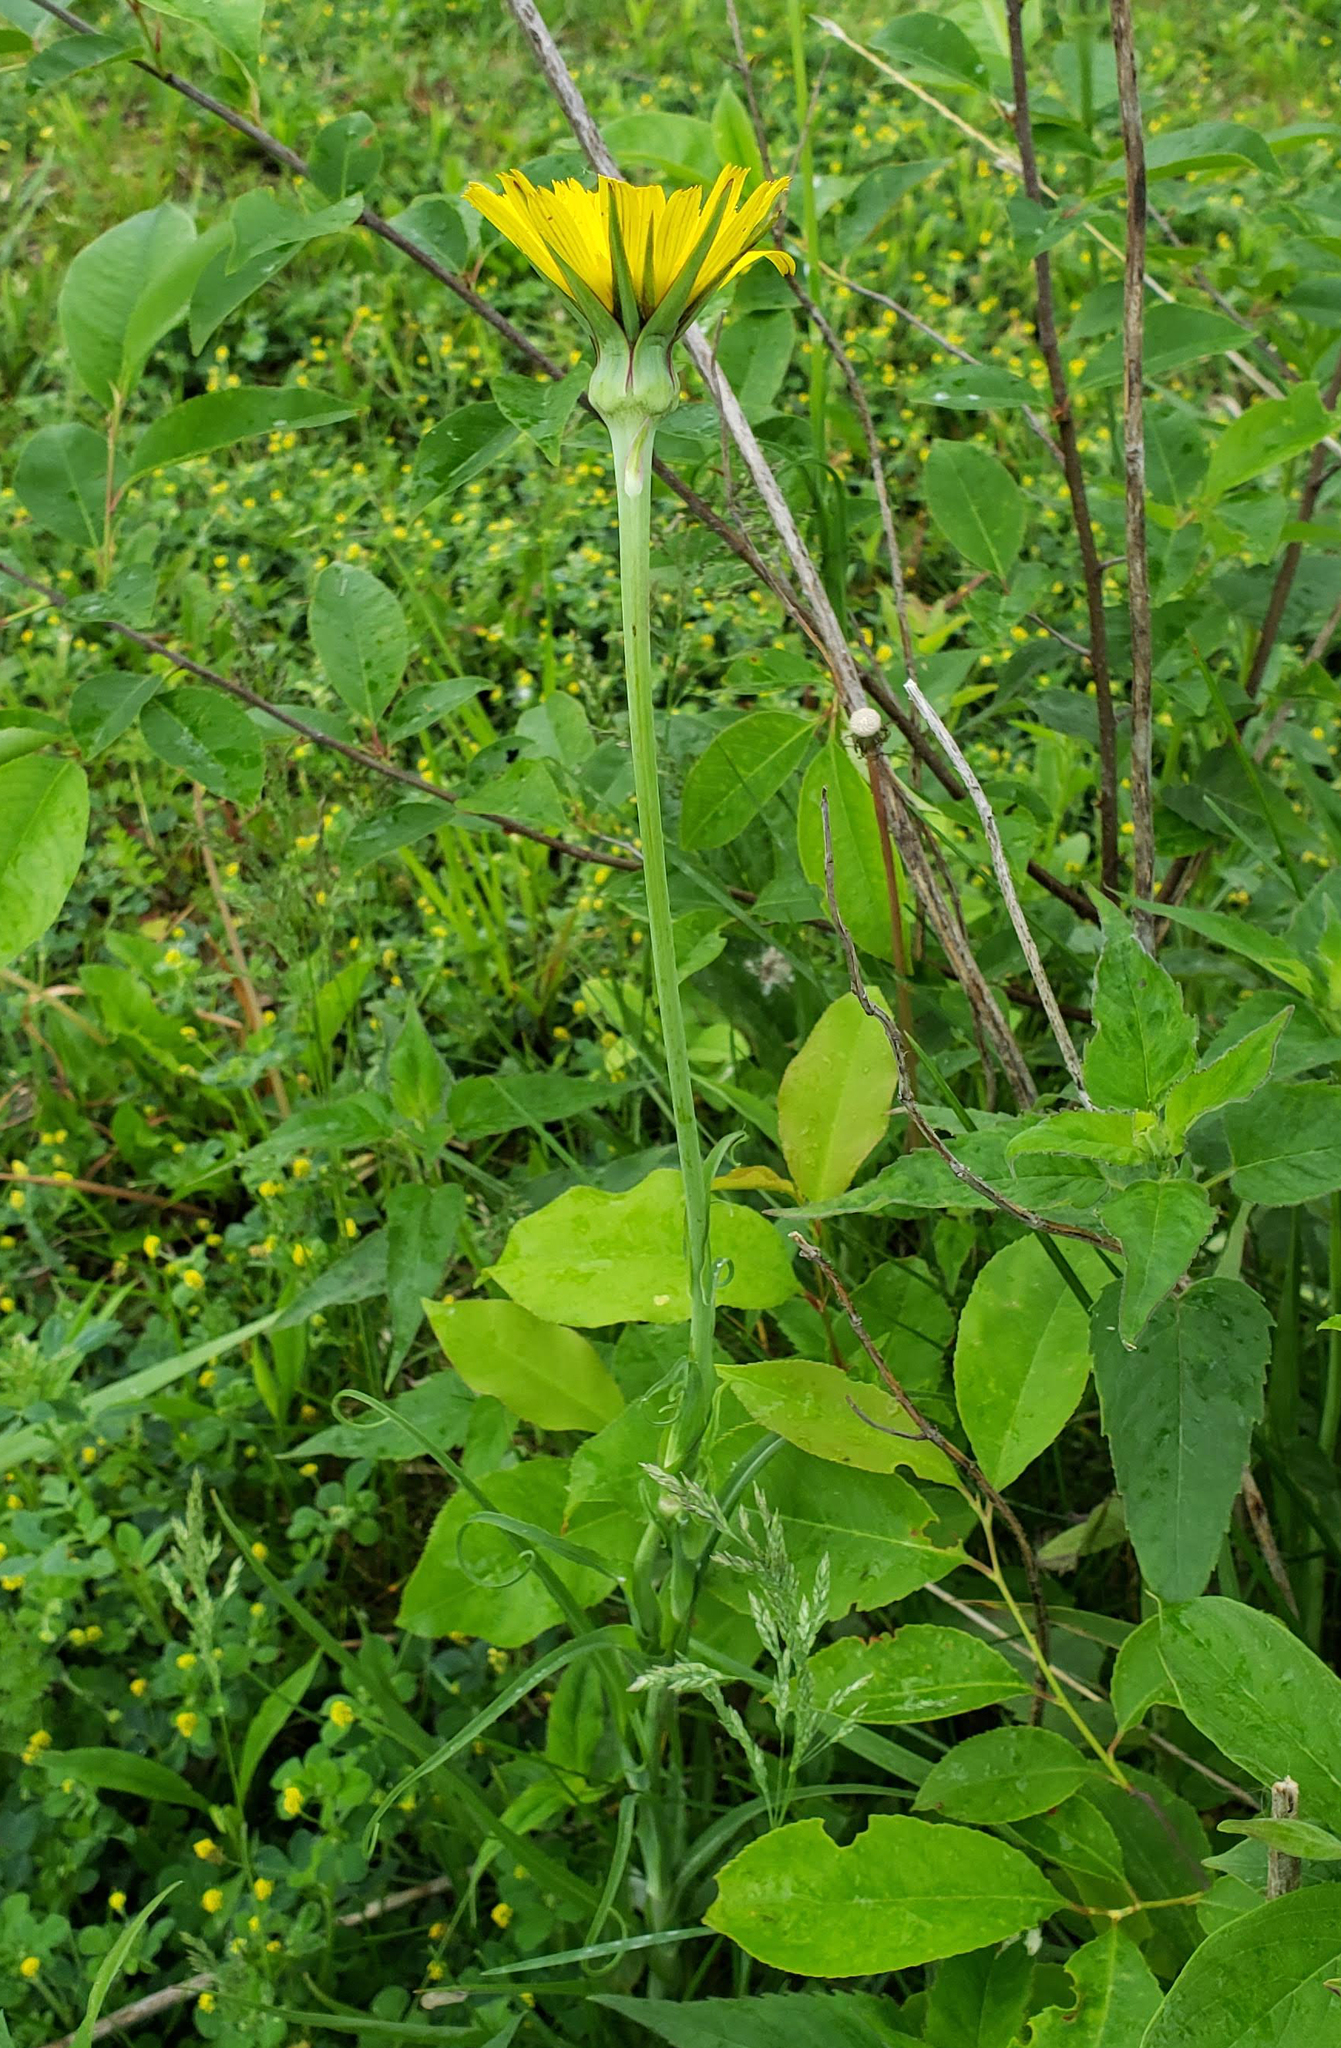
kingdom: Plantae
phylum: Tracheophyta
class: Magnoliopsida
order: Asterales
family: Asteraceae
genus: Tragopogon
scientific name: Tragopogon pratensis
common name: Goat's-beard
